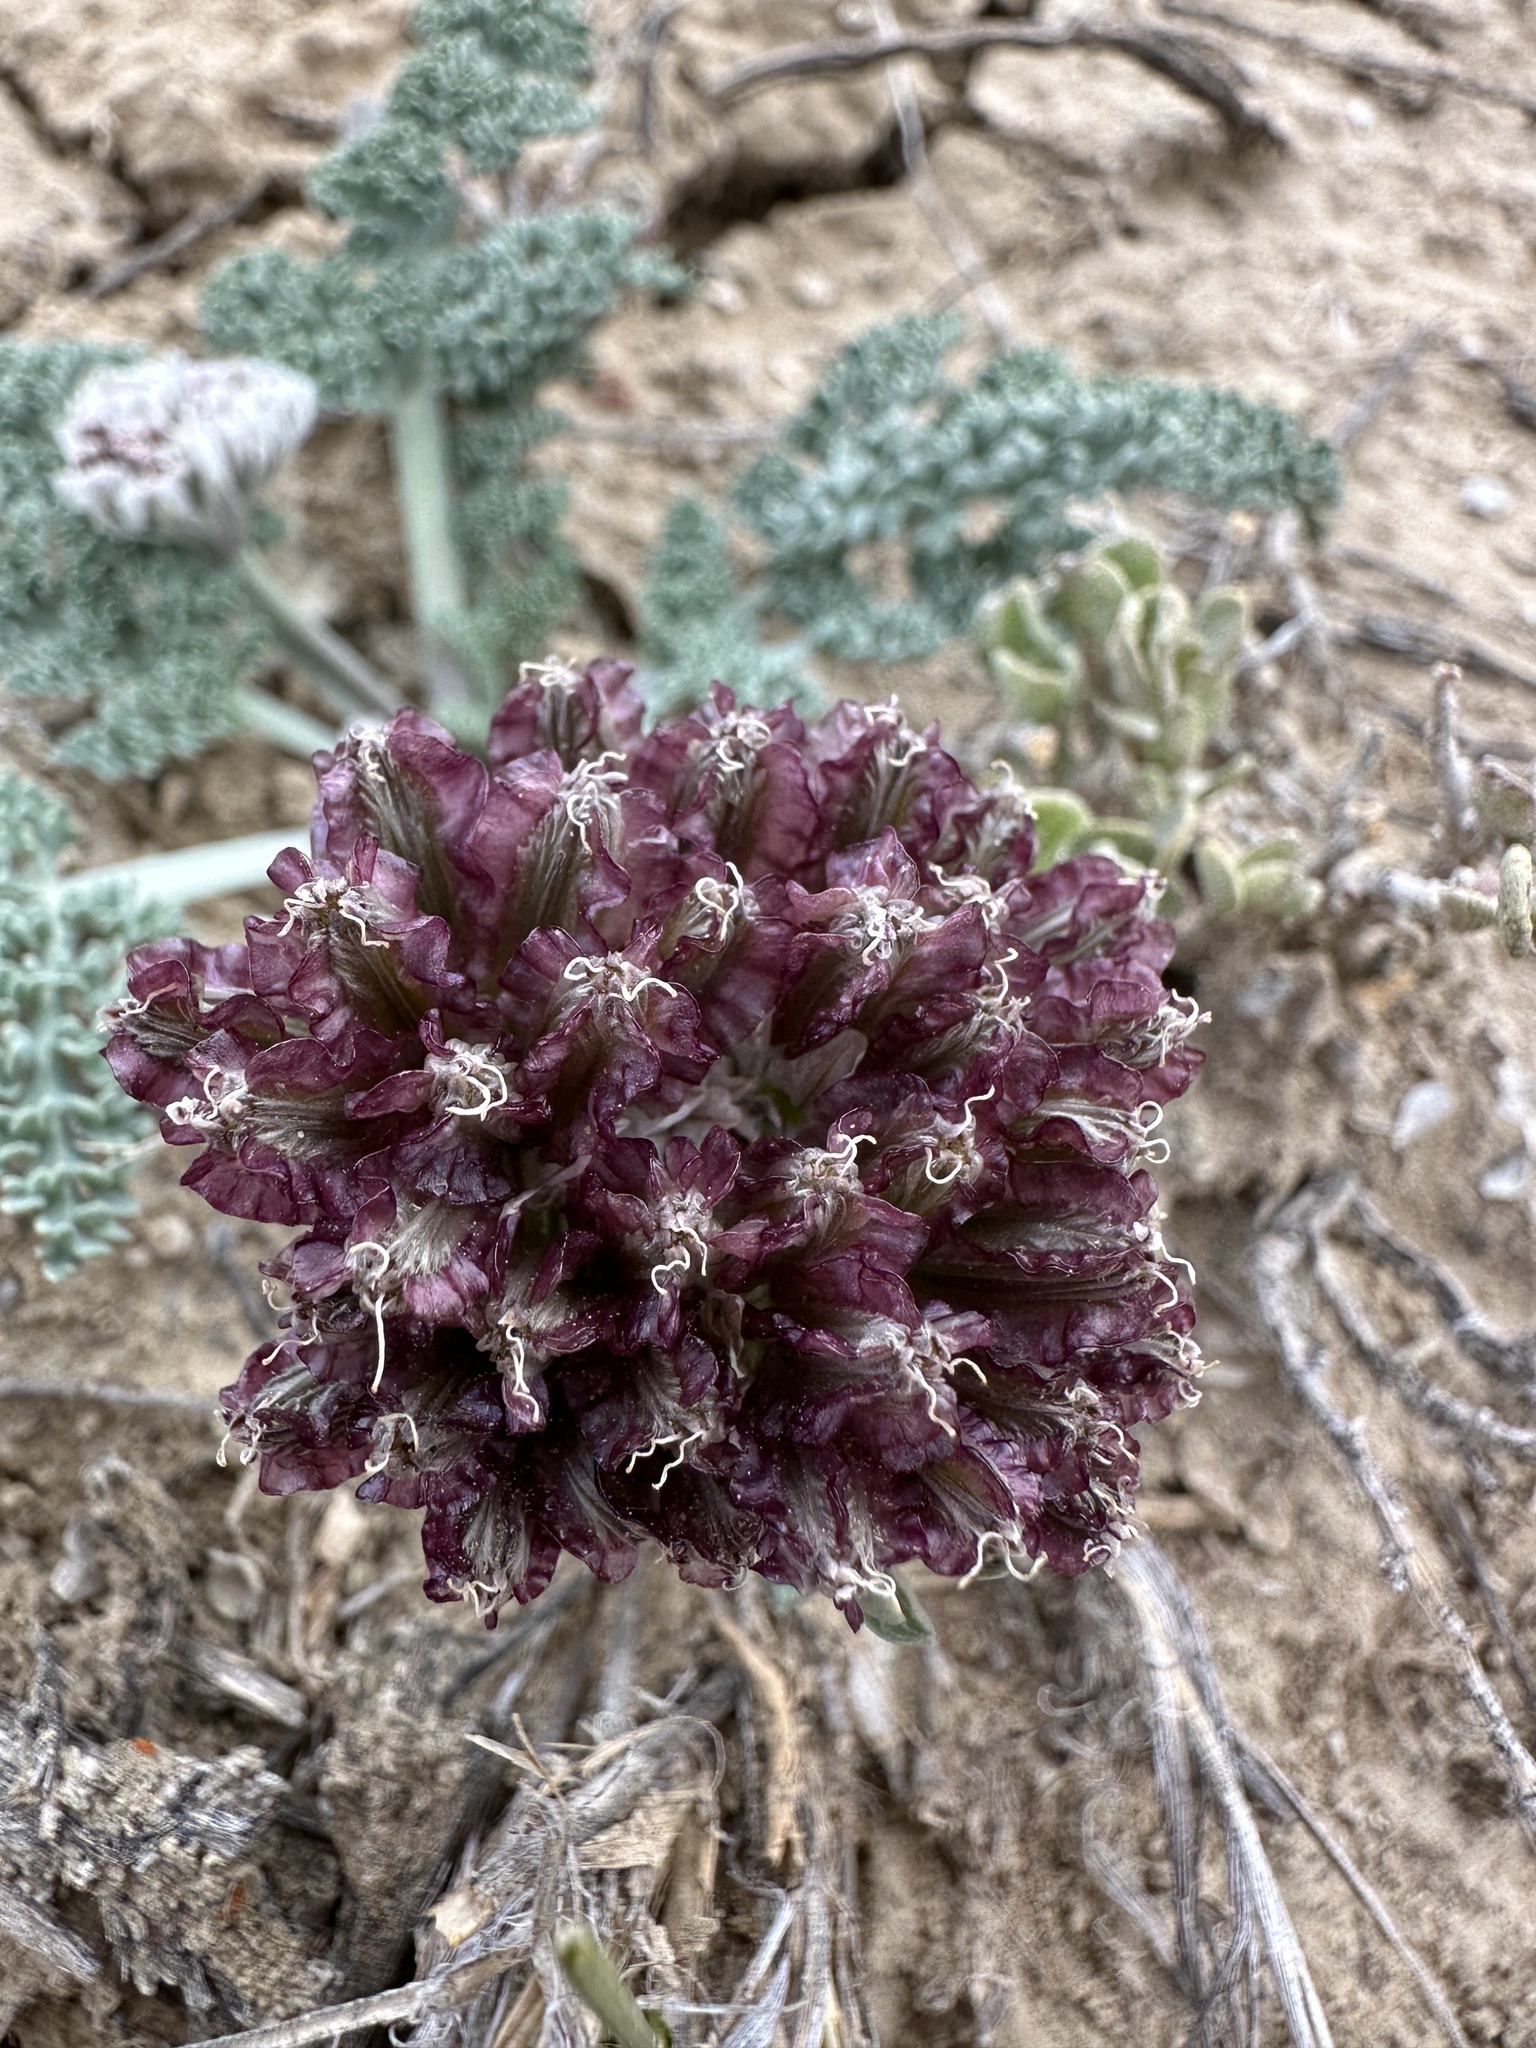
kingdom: Plantae
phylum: Tracheophyta
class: Magnoliopsida
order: Apiales
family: Apiaceae
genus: Vesper
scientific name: Vesper purpurascens
